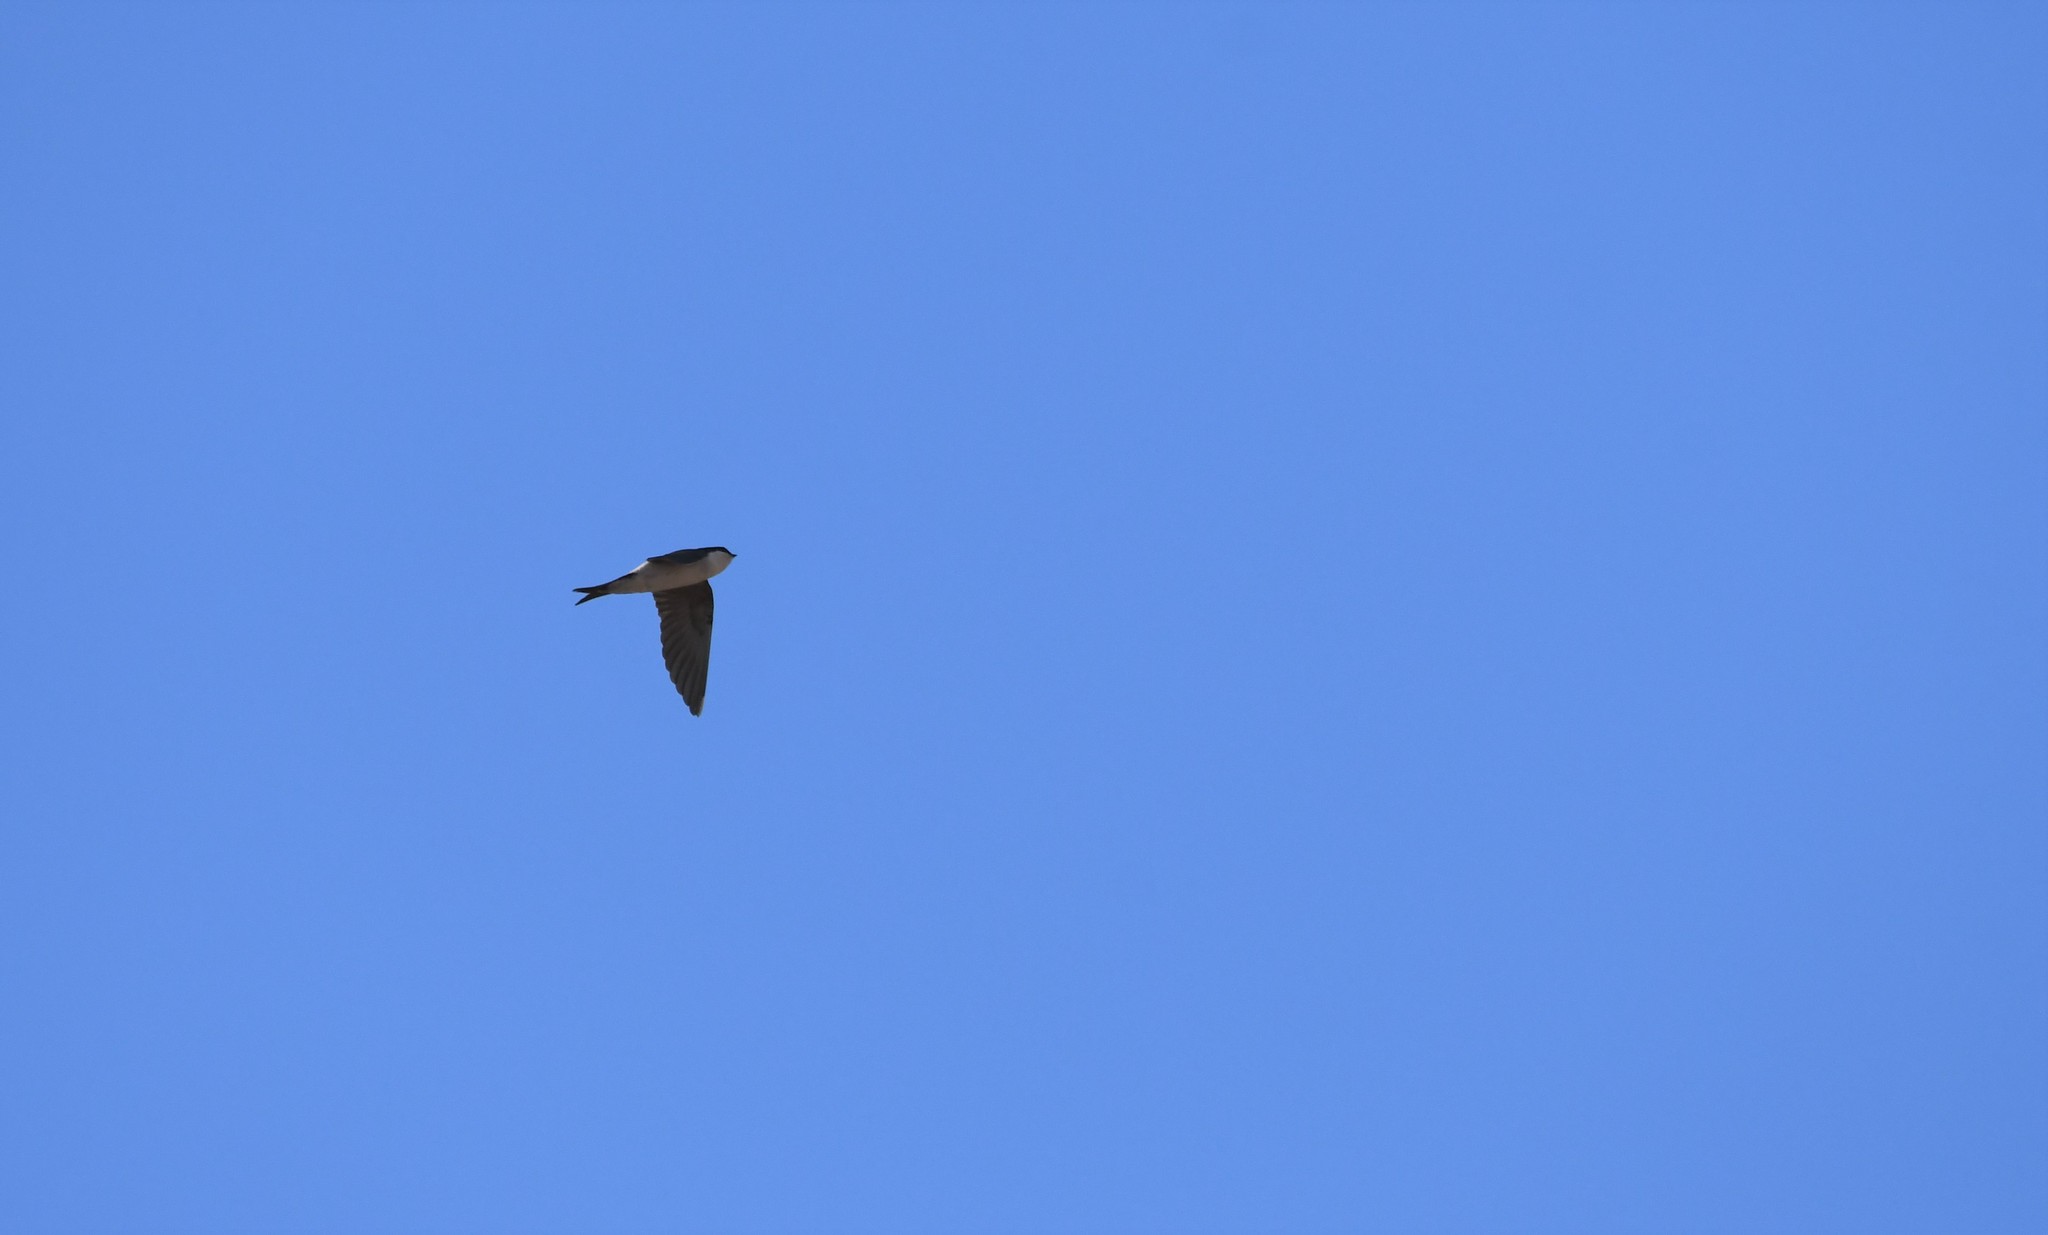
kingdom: Animalia
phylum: Chordata
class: Aves
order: Passeriformes
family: Hirundinidae
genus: Delichon
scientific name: Delichon urbicum
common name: Common house martin
